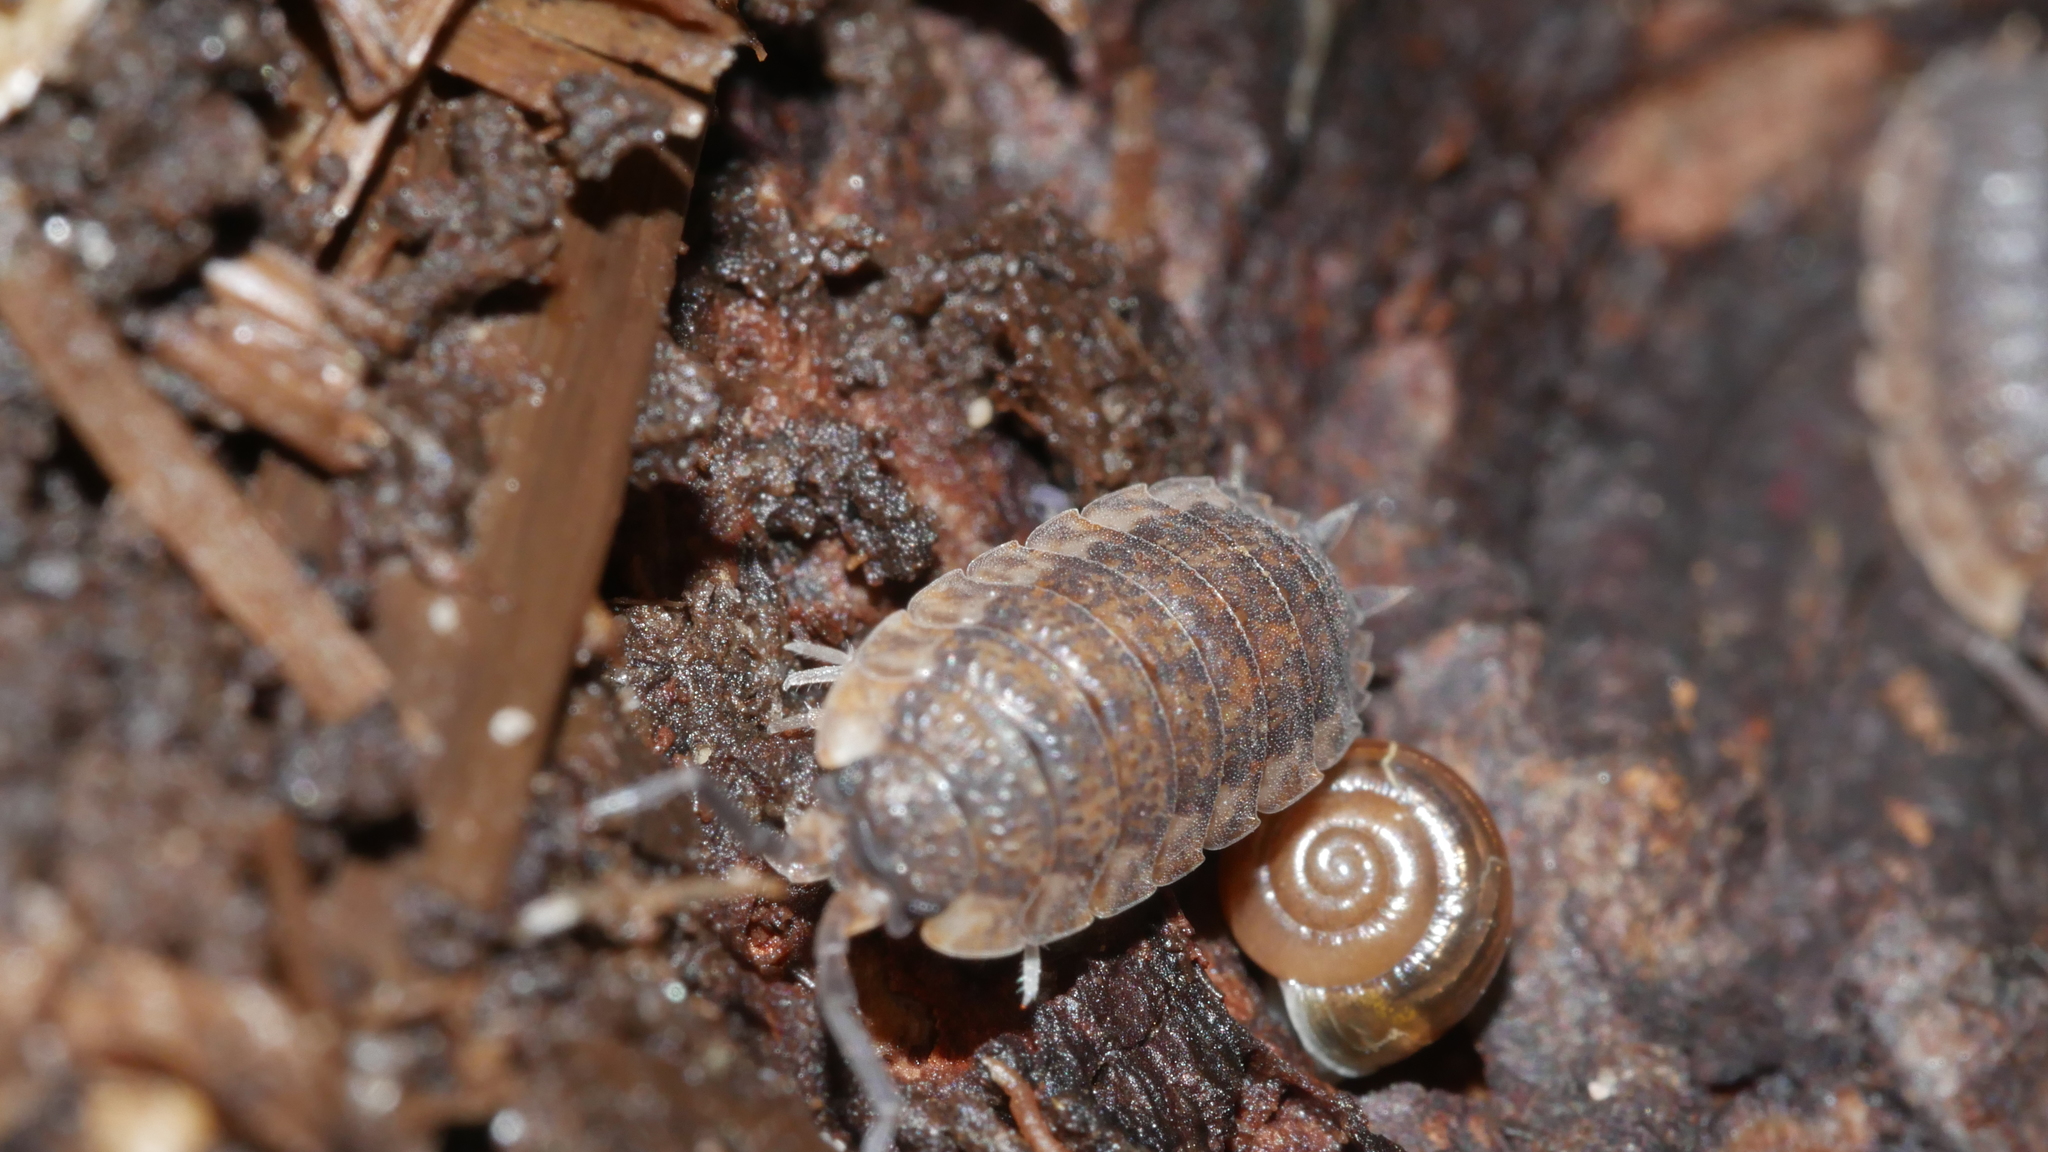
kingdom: Animalia
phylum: Arthropoda
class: Malacostraca
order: Isopoda
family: Porcellionidae
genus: Porcellio
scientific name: Porcellio scaber
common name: Common rough woodlouse
